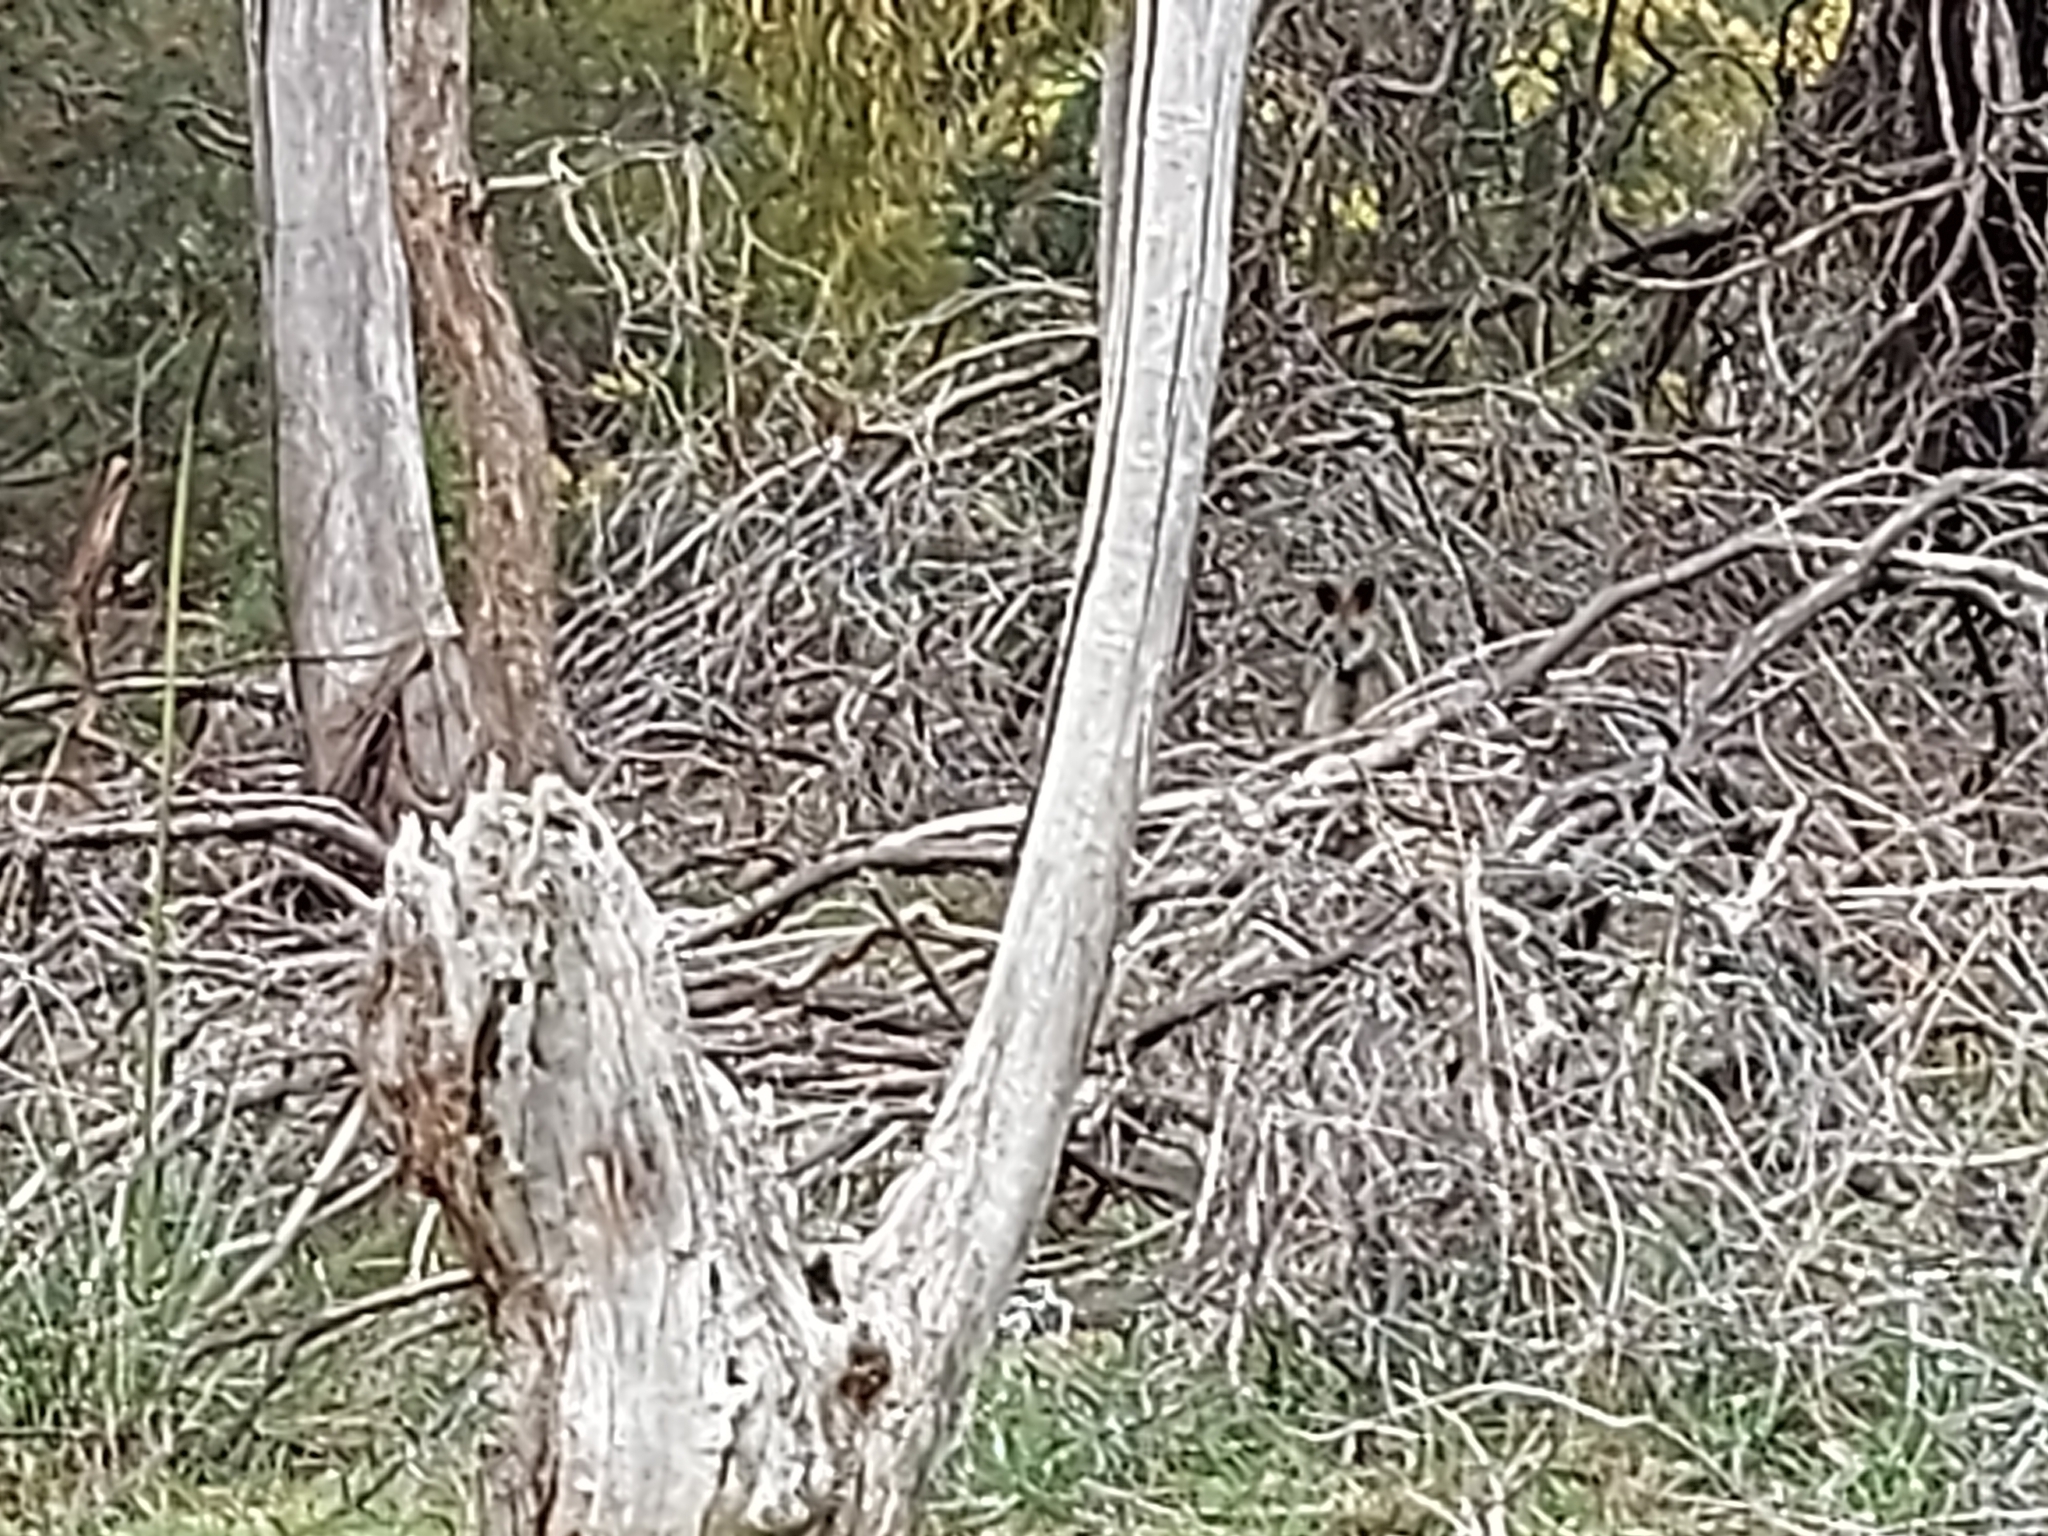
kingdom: Animalia
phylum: Chordata
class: Mammalia
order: Diprotodontia
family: Macropodidae
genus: Wallabia
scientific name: Wallabia bicolor
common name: Swamp wallaby
